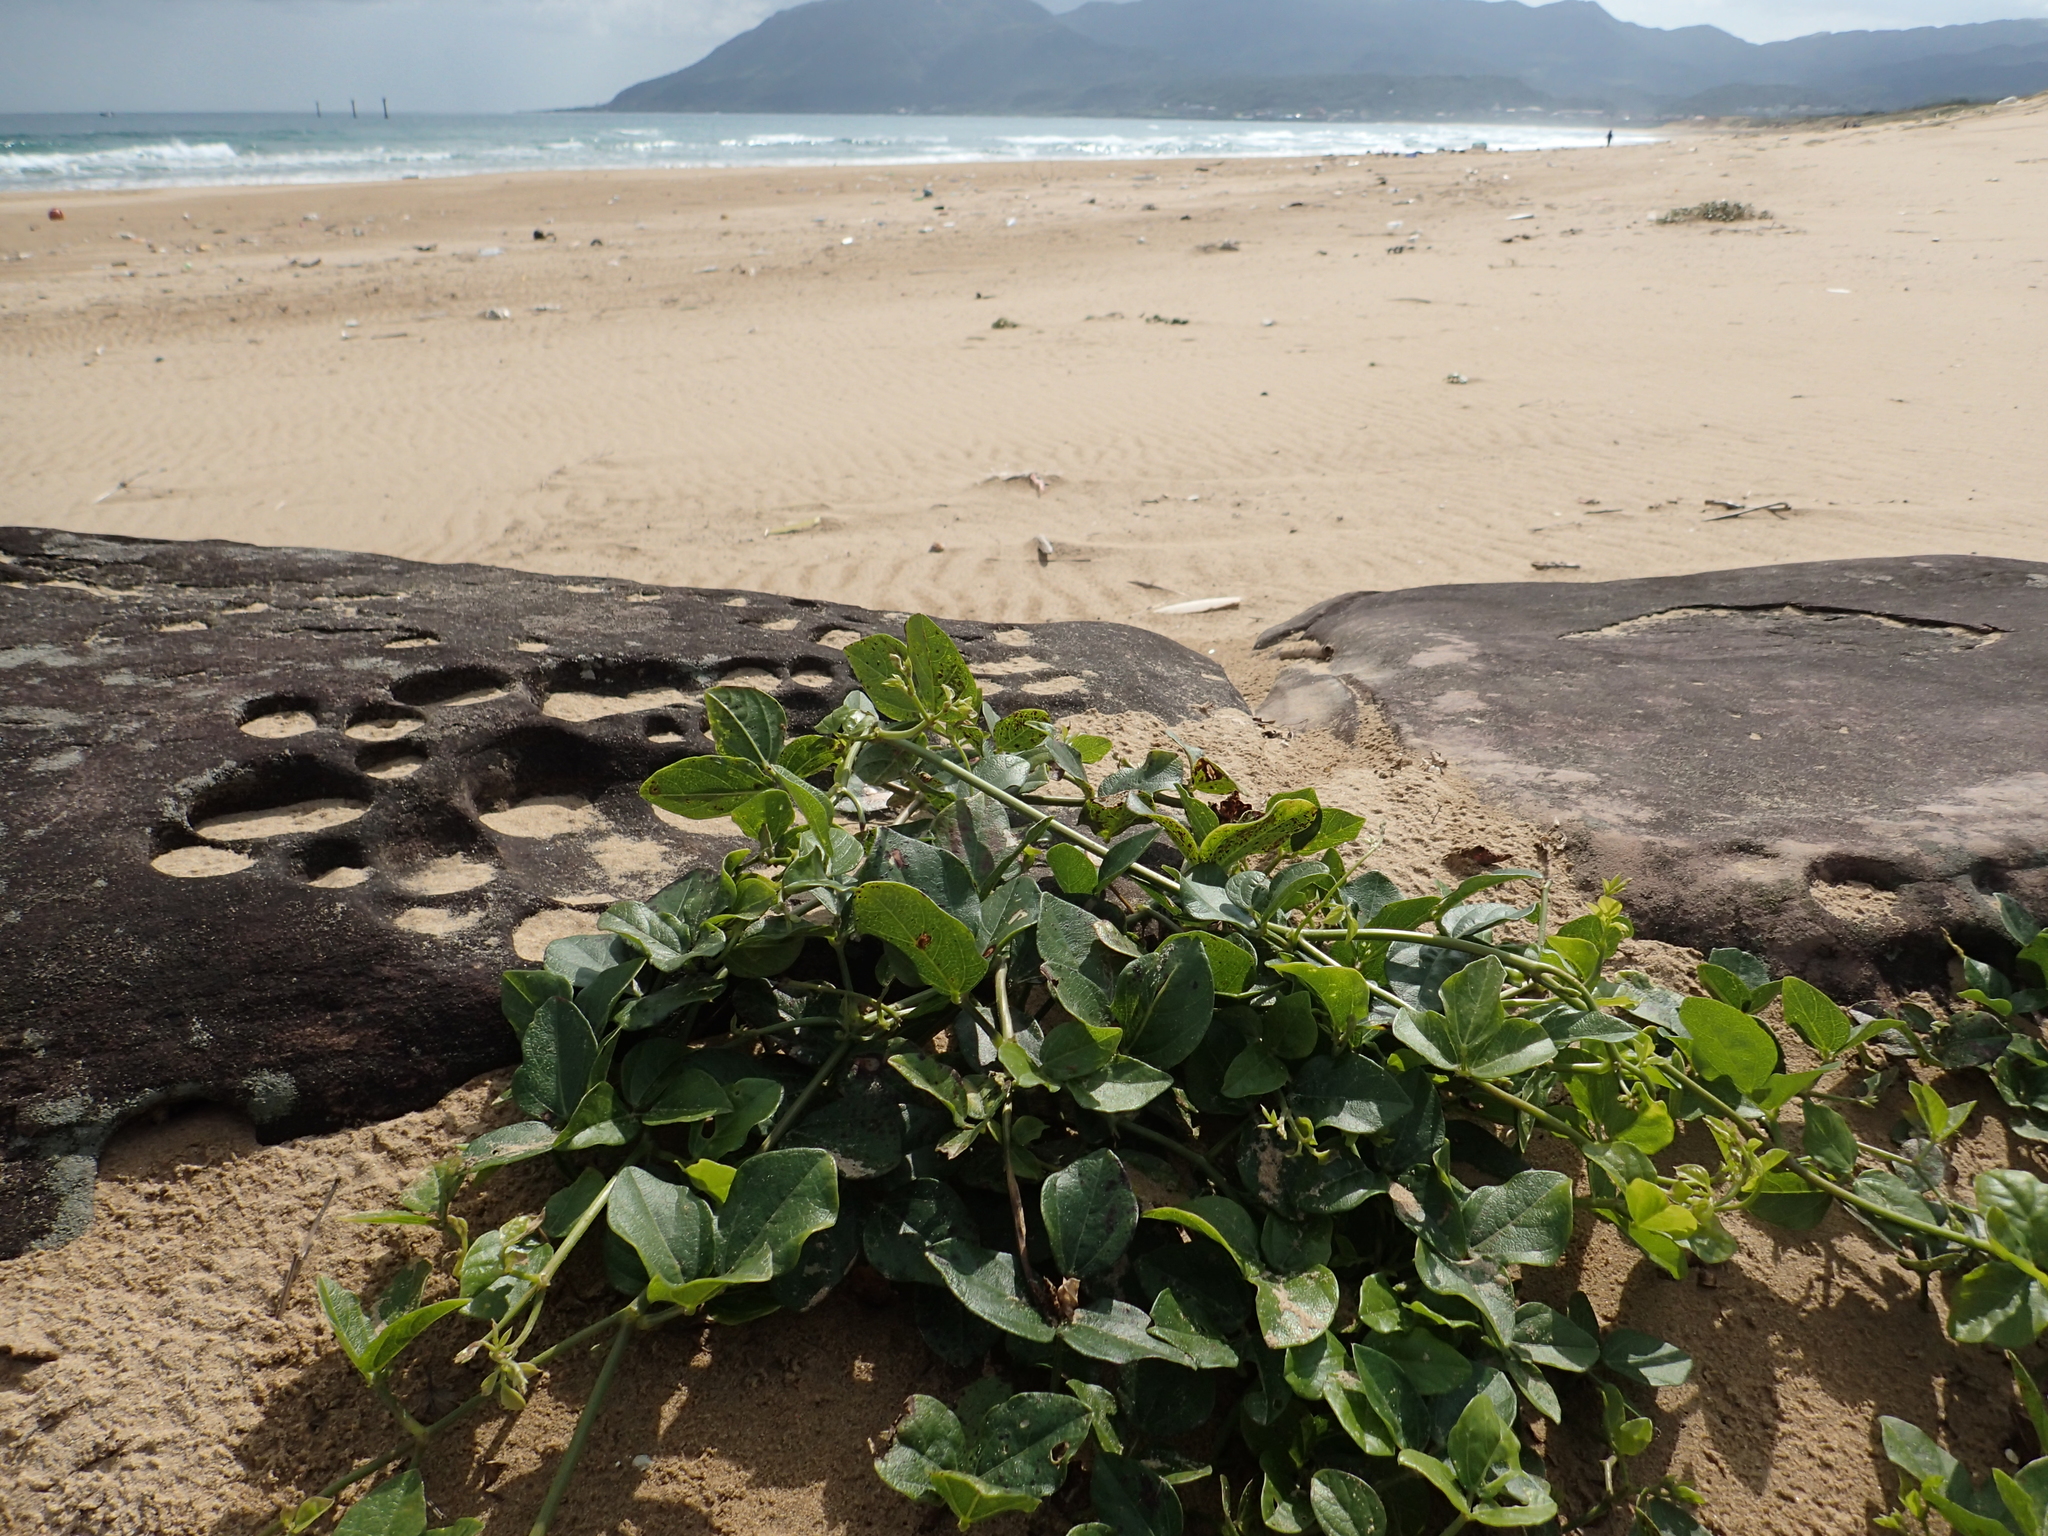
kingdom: Plantae
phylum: Tracheophyta
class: Magnoliopsida
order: Fabales
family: Fabaceae
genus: Vigna
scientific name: Vigna marina
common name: Dune-bean
